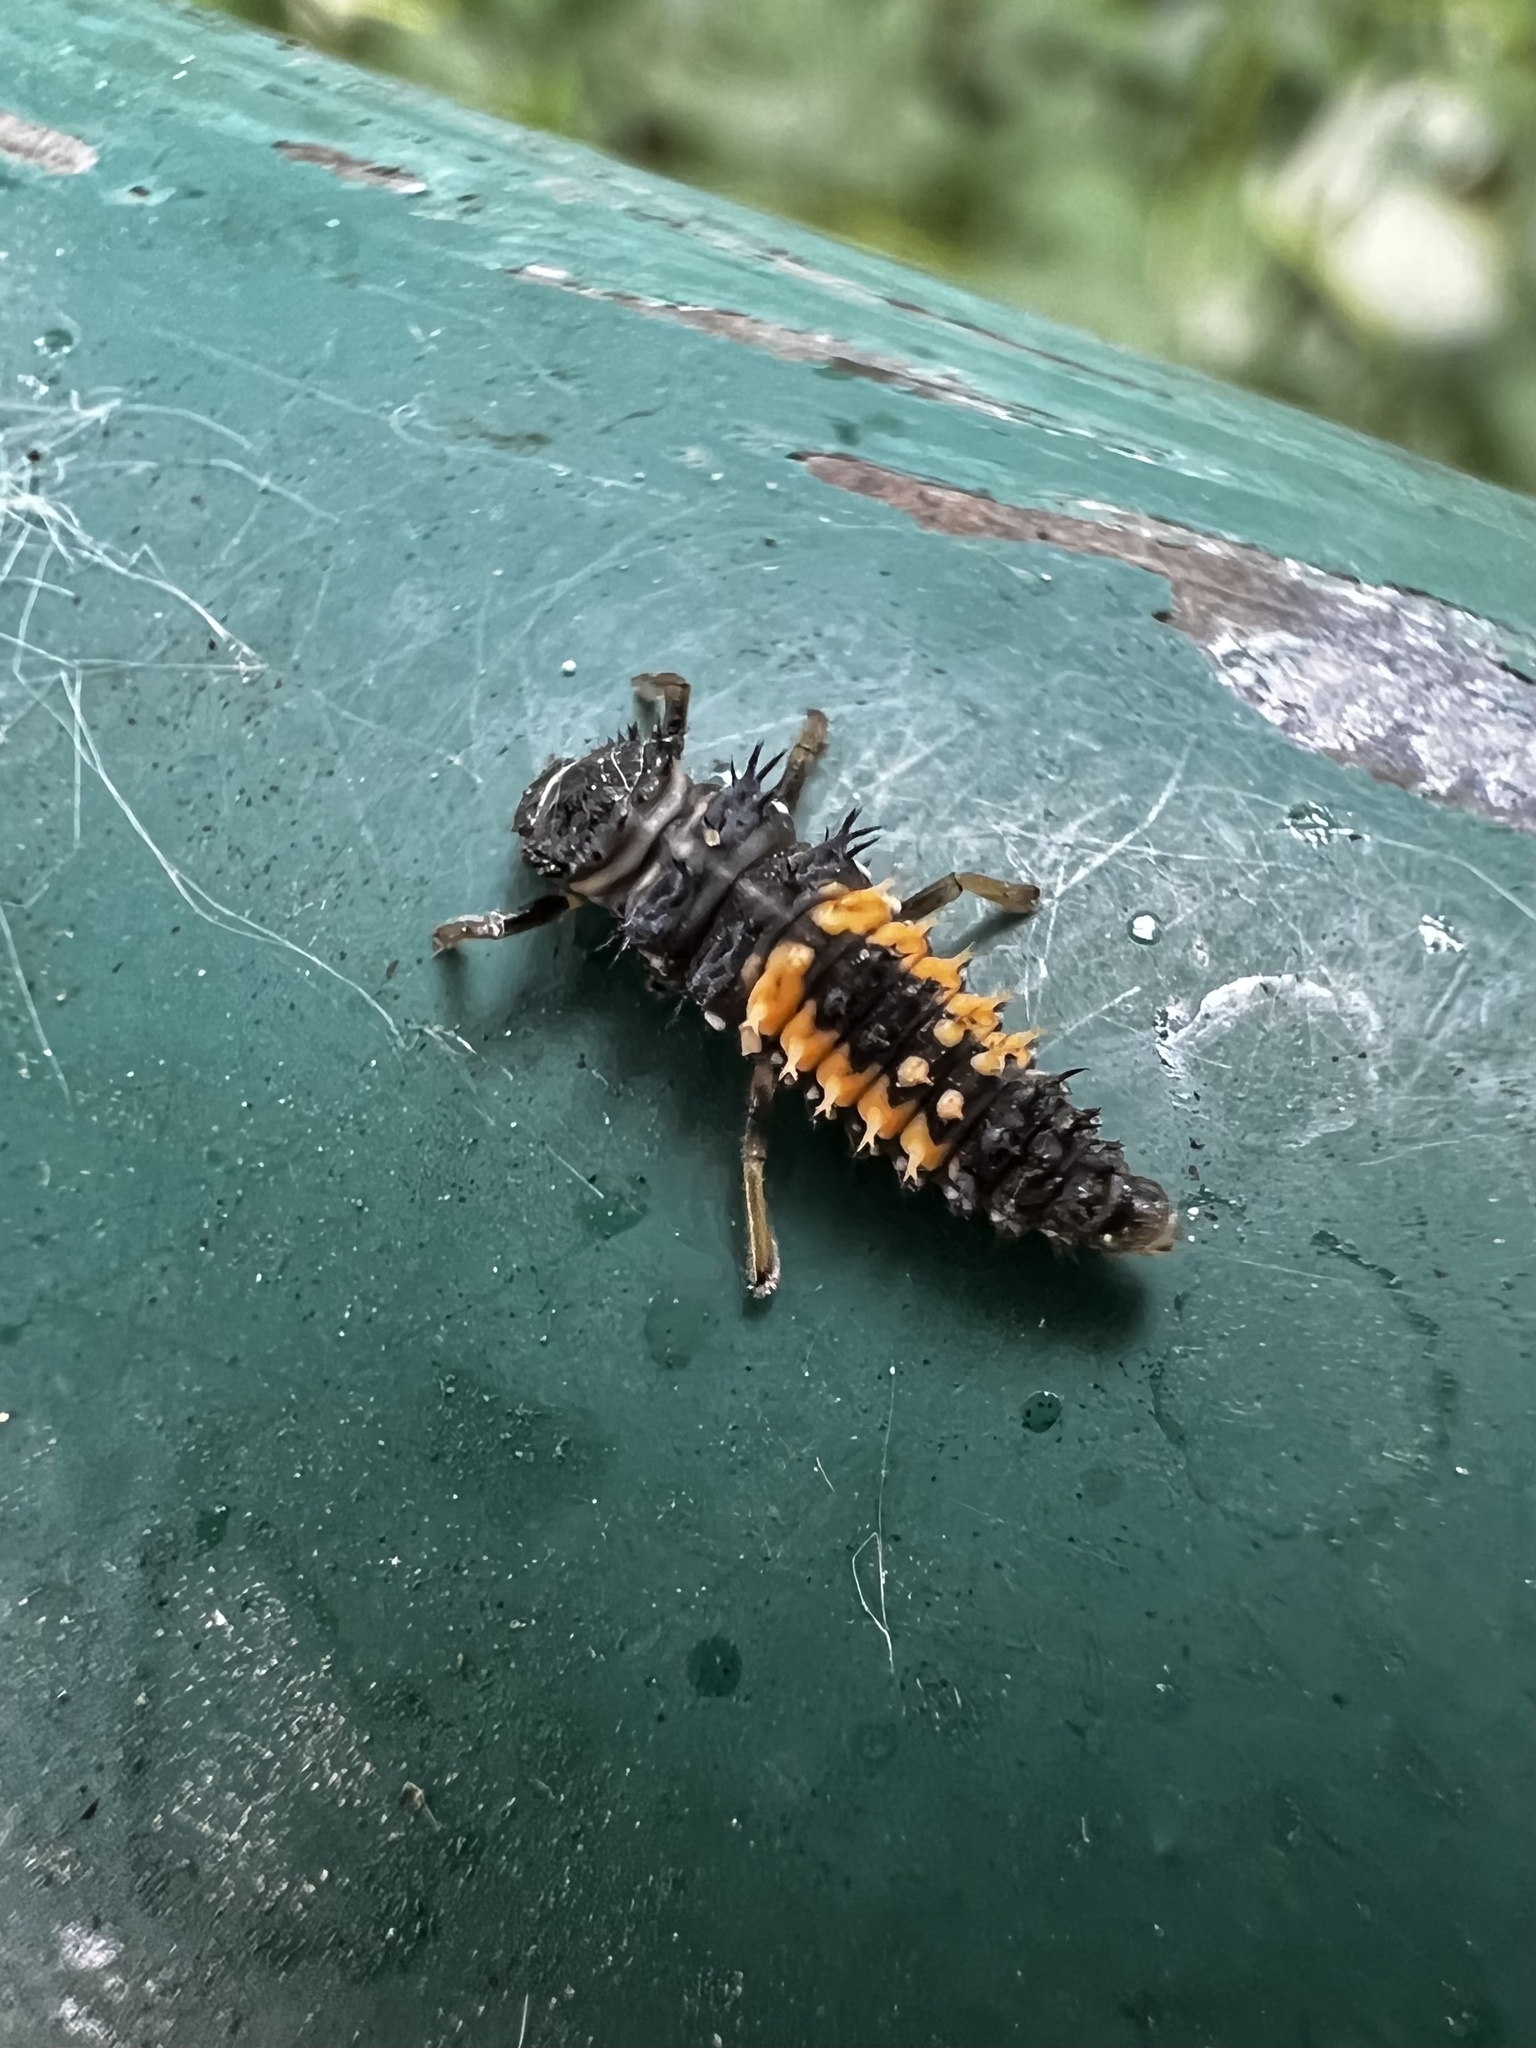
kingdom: Animalia
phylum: Arthropoda
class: Insecta
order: Coleoptera
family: Coccinellidae
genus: Harmonia
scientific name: Harmonia axyridis
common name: Harlequin ladybird
